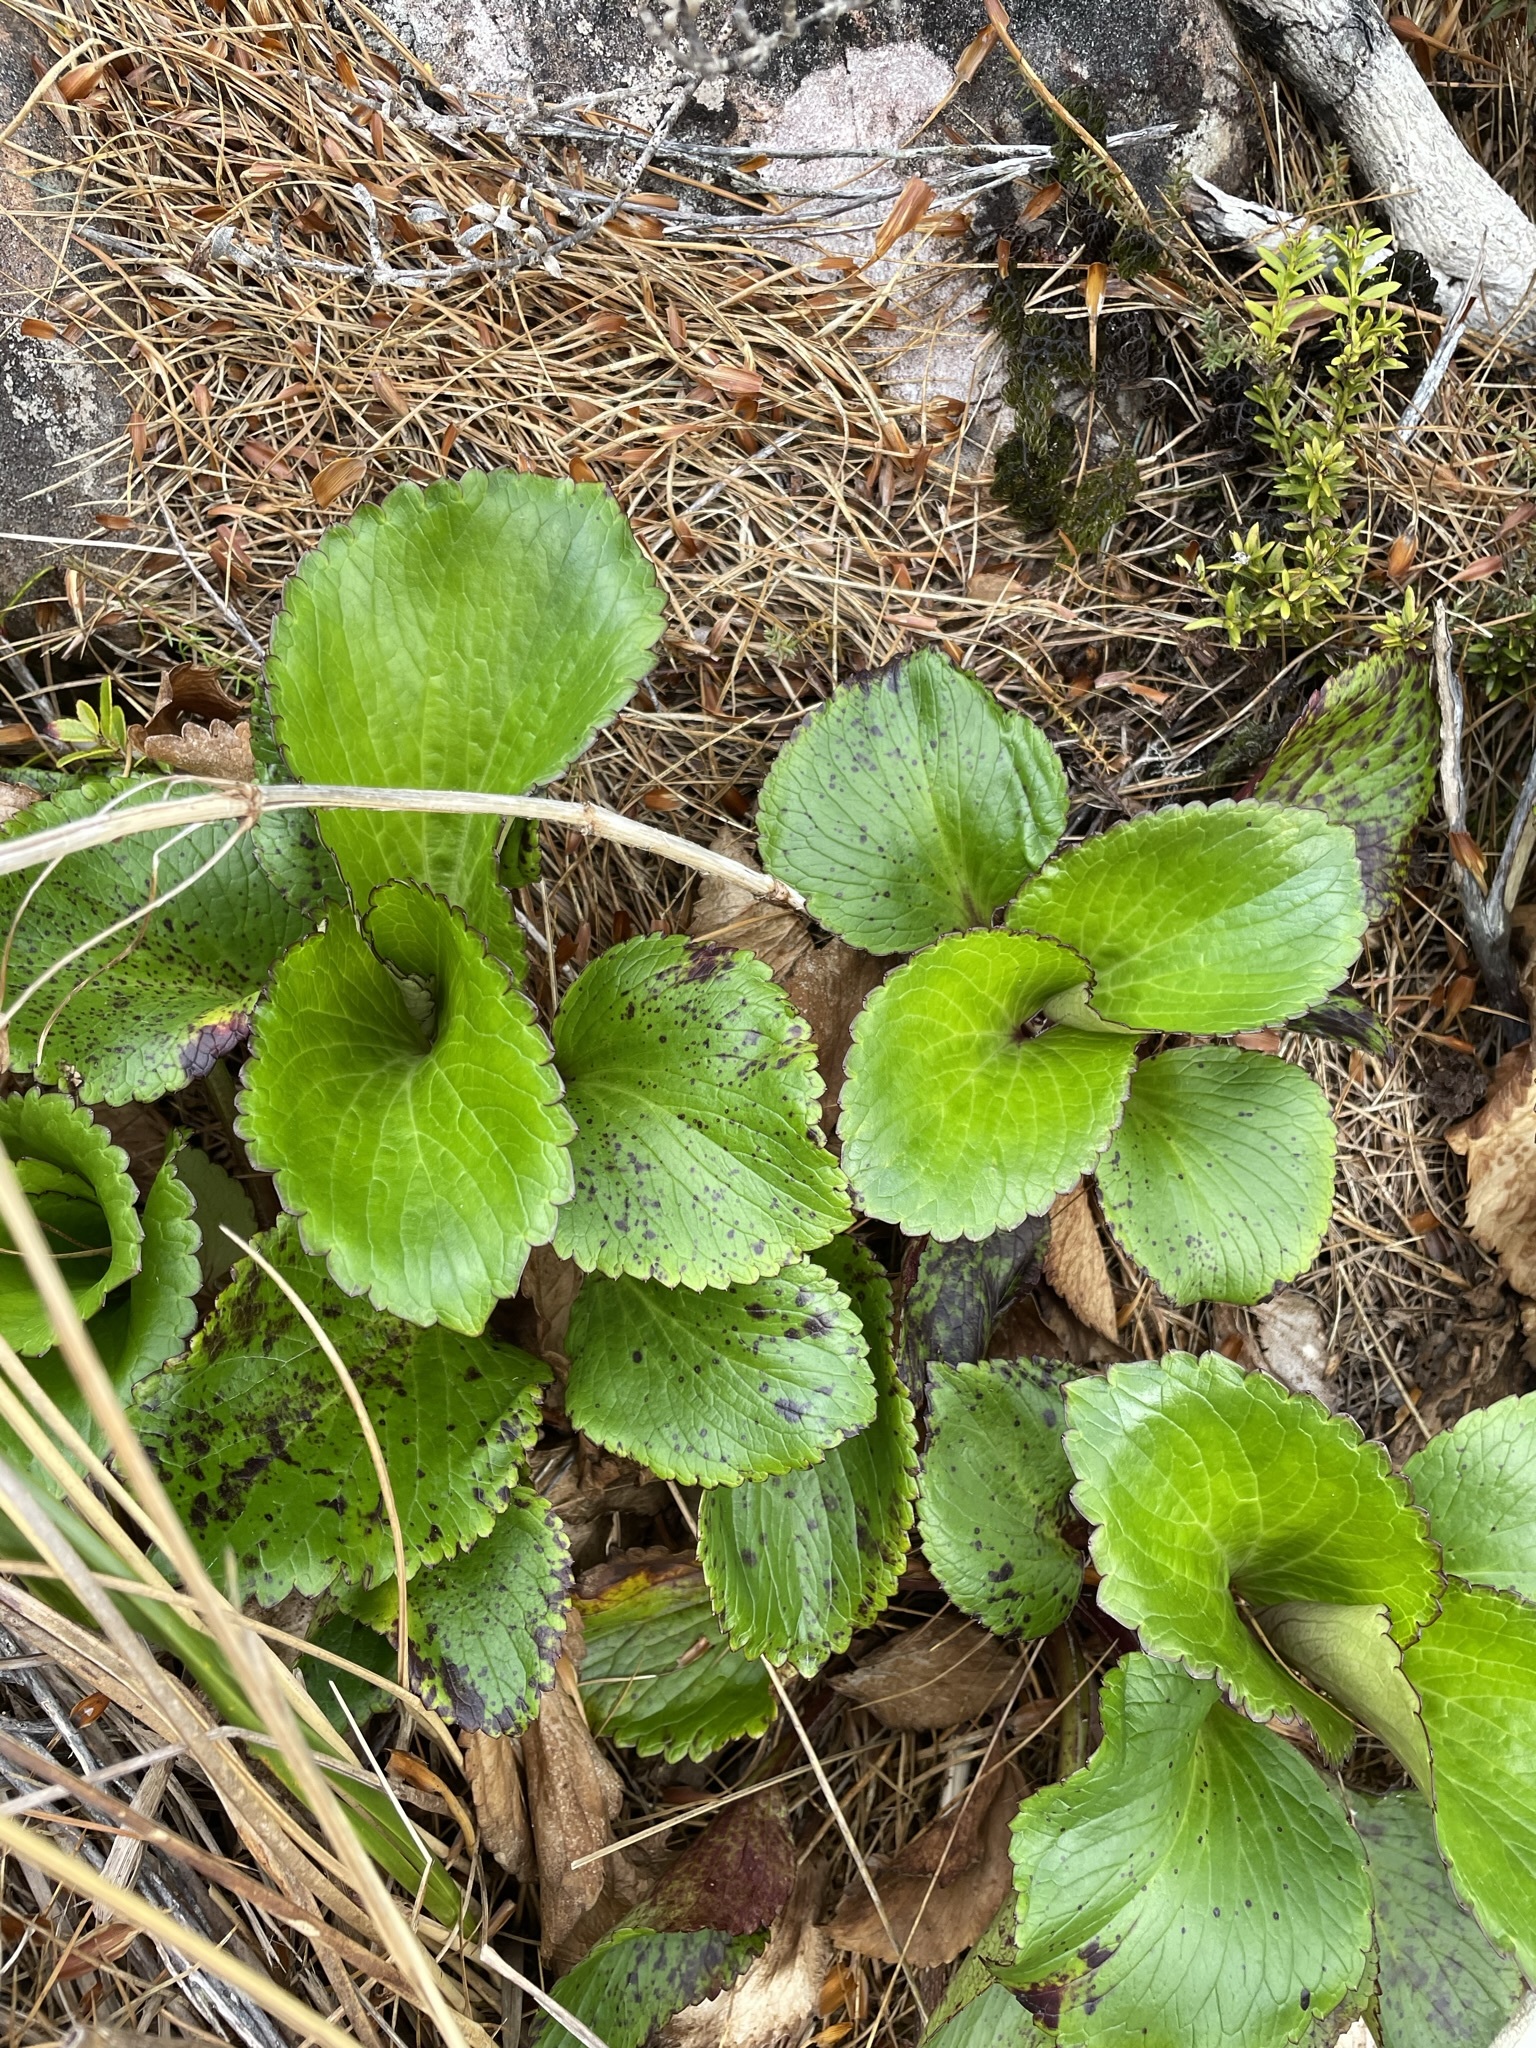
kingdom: Plantae
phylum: Tracheophyta
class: Magnoliopsida
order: Lamiales
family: Plantaginaceae
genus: Ourisia
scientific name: Ourisia calycina
